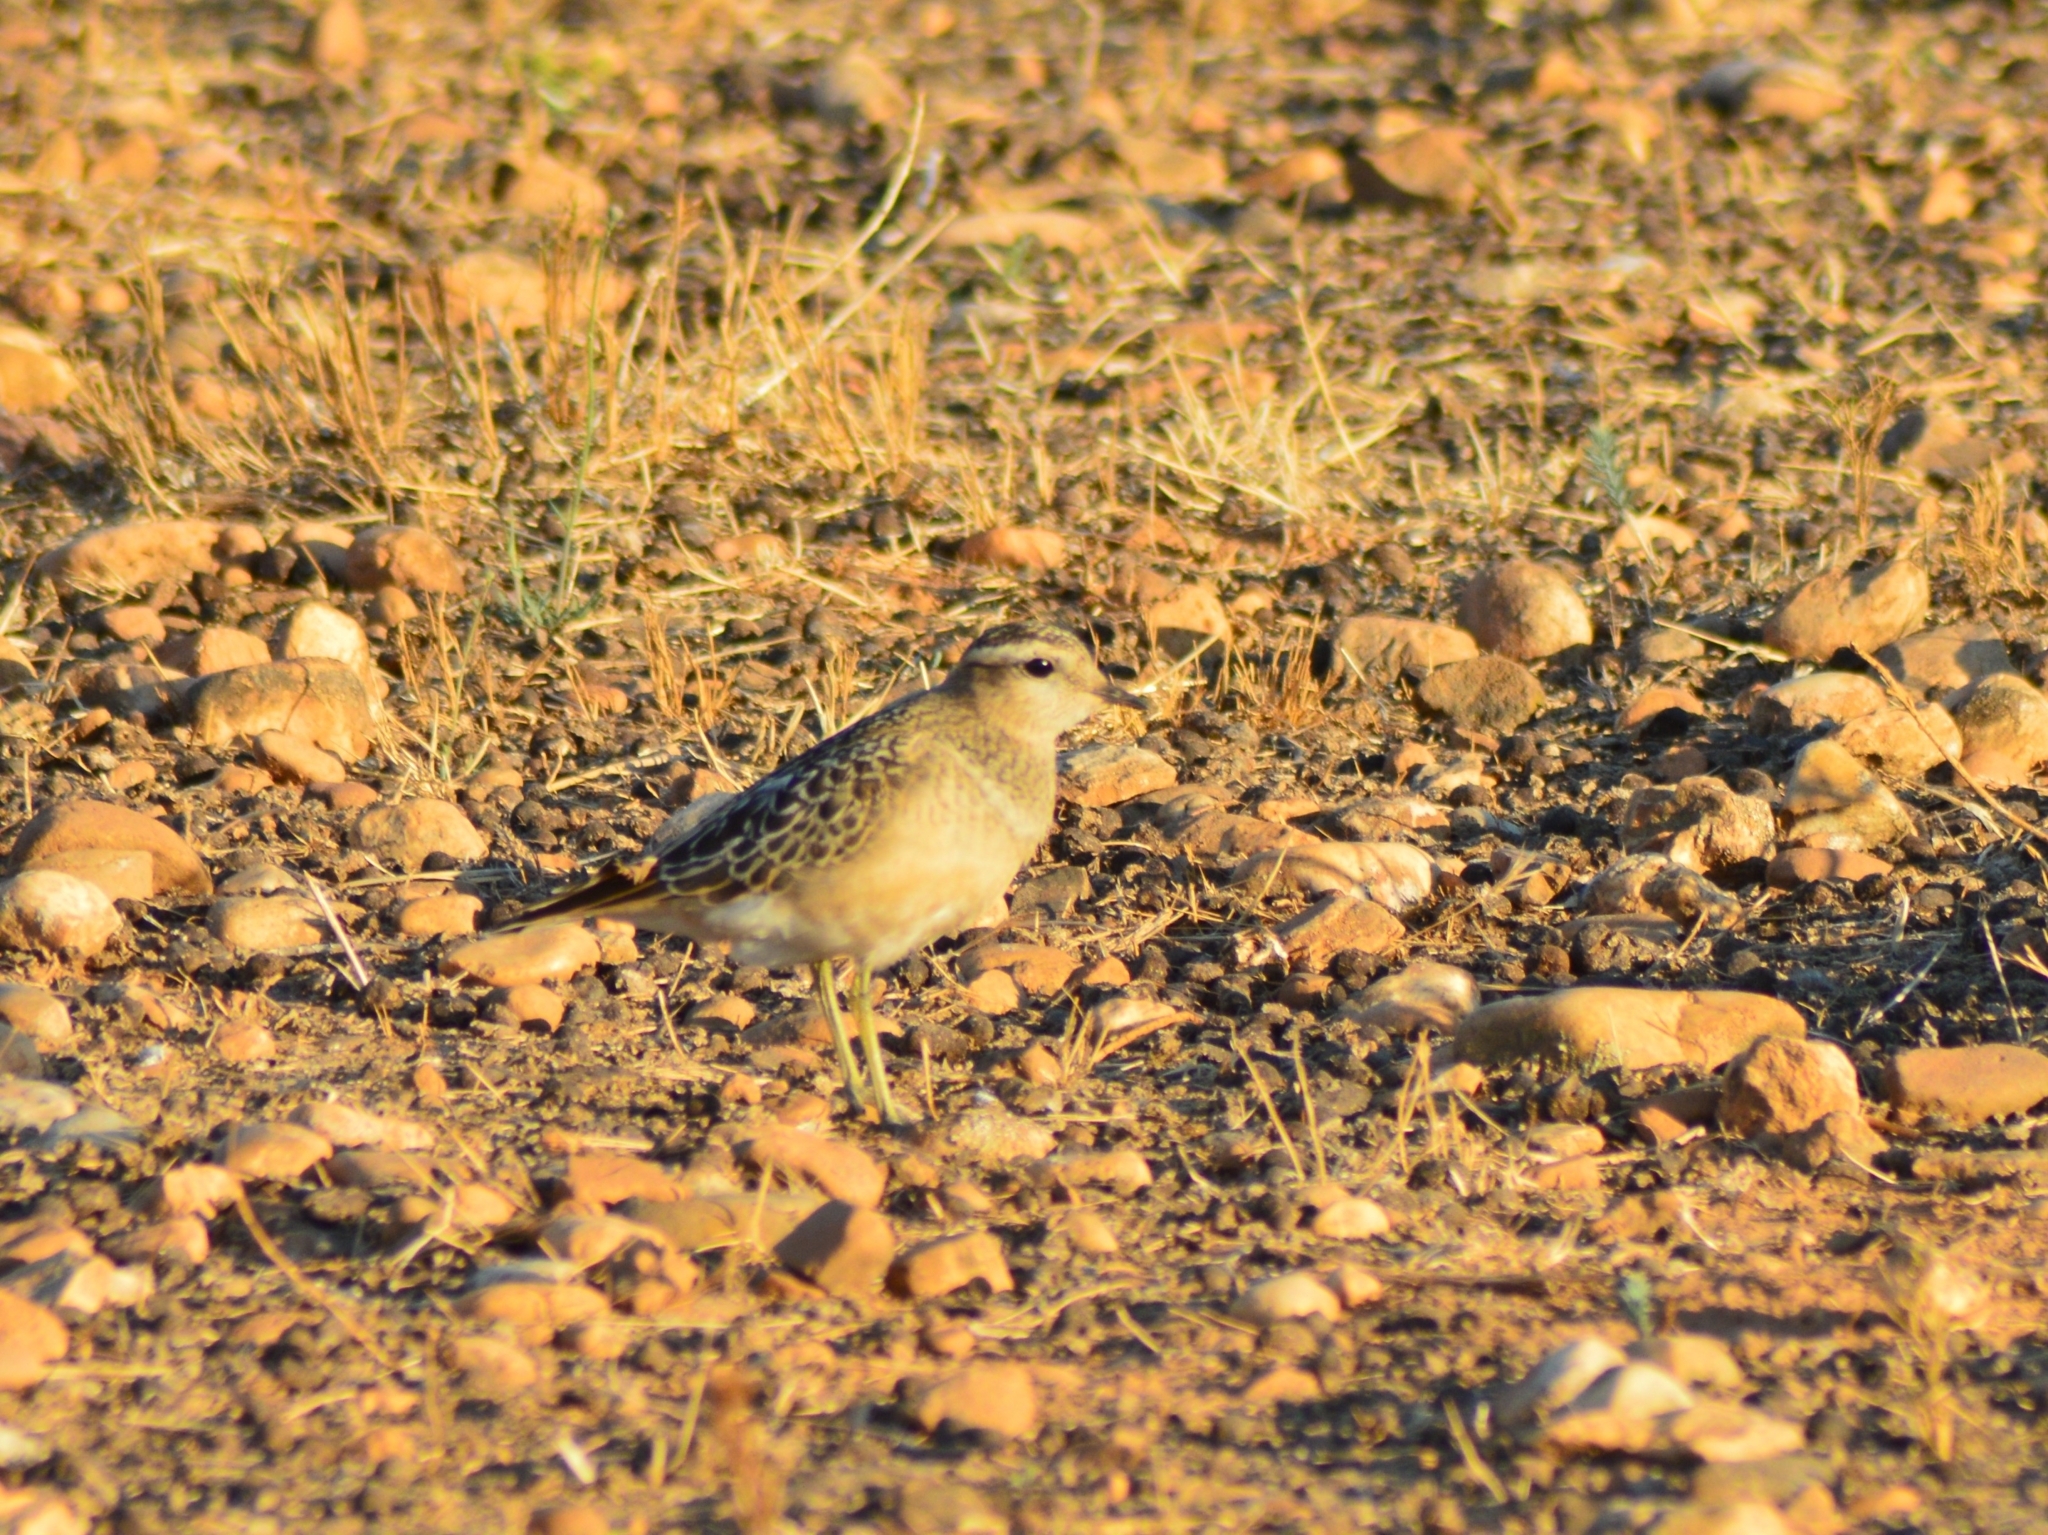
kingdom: Animalia
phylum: Chordata
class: Aves
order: Charadriiformes
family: Charadriidae
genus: Charadrius
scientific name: Charadrius morinellus
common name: Eurasian dotterel
